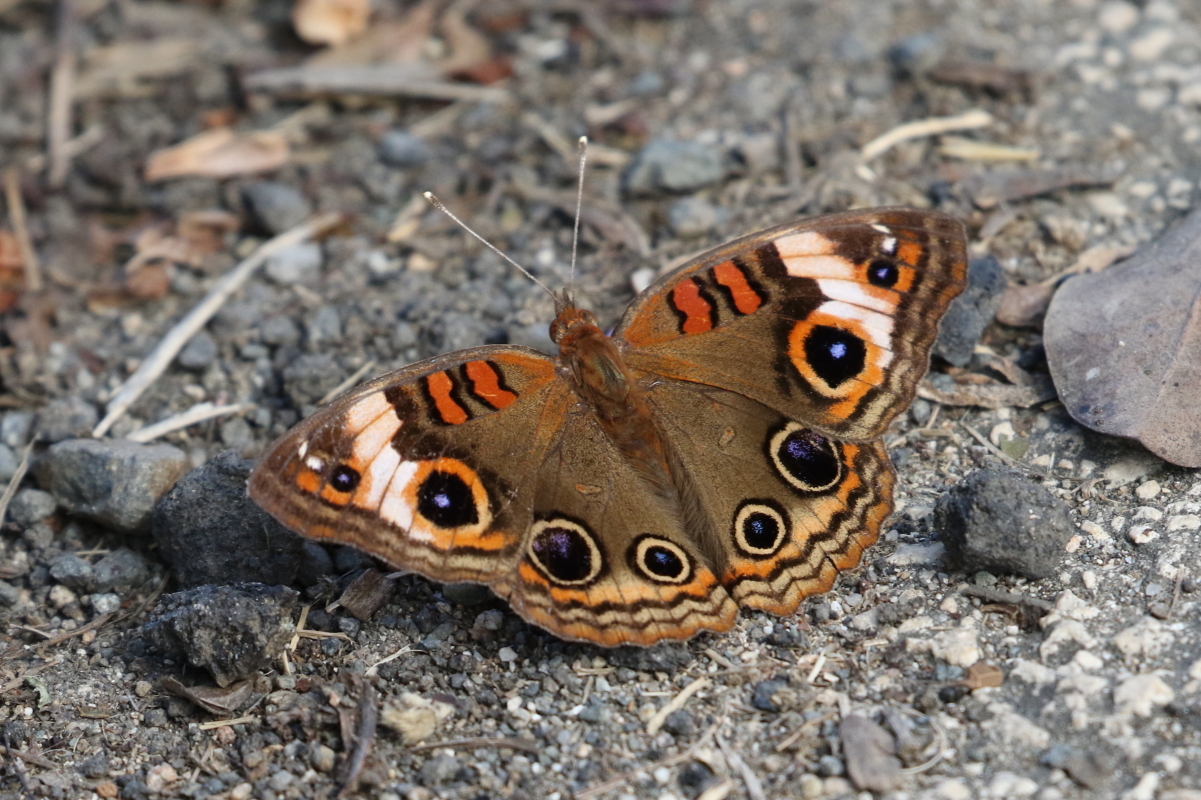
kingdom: Animalia
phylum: Arthropoda
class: Insecta
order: Lepidoptera
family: Nymphalidae
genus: Junonia
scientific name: Junonia lavinia
